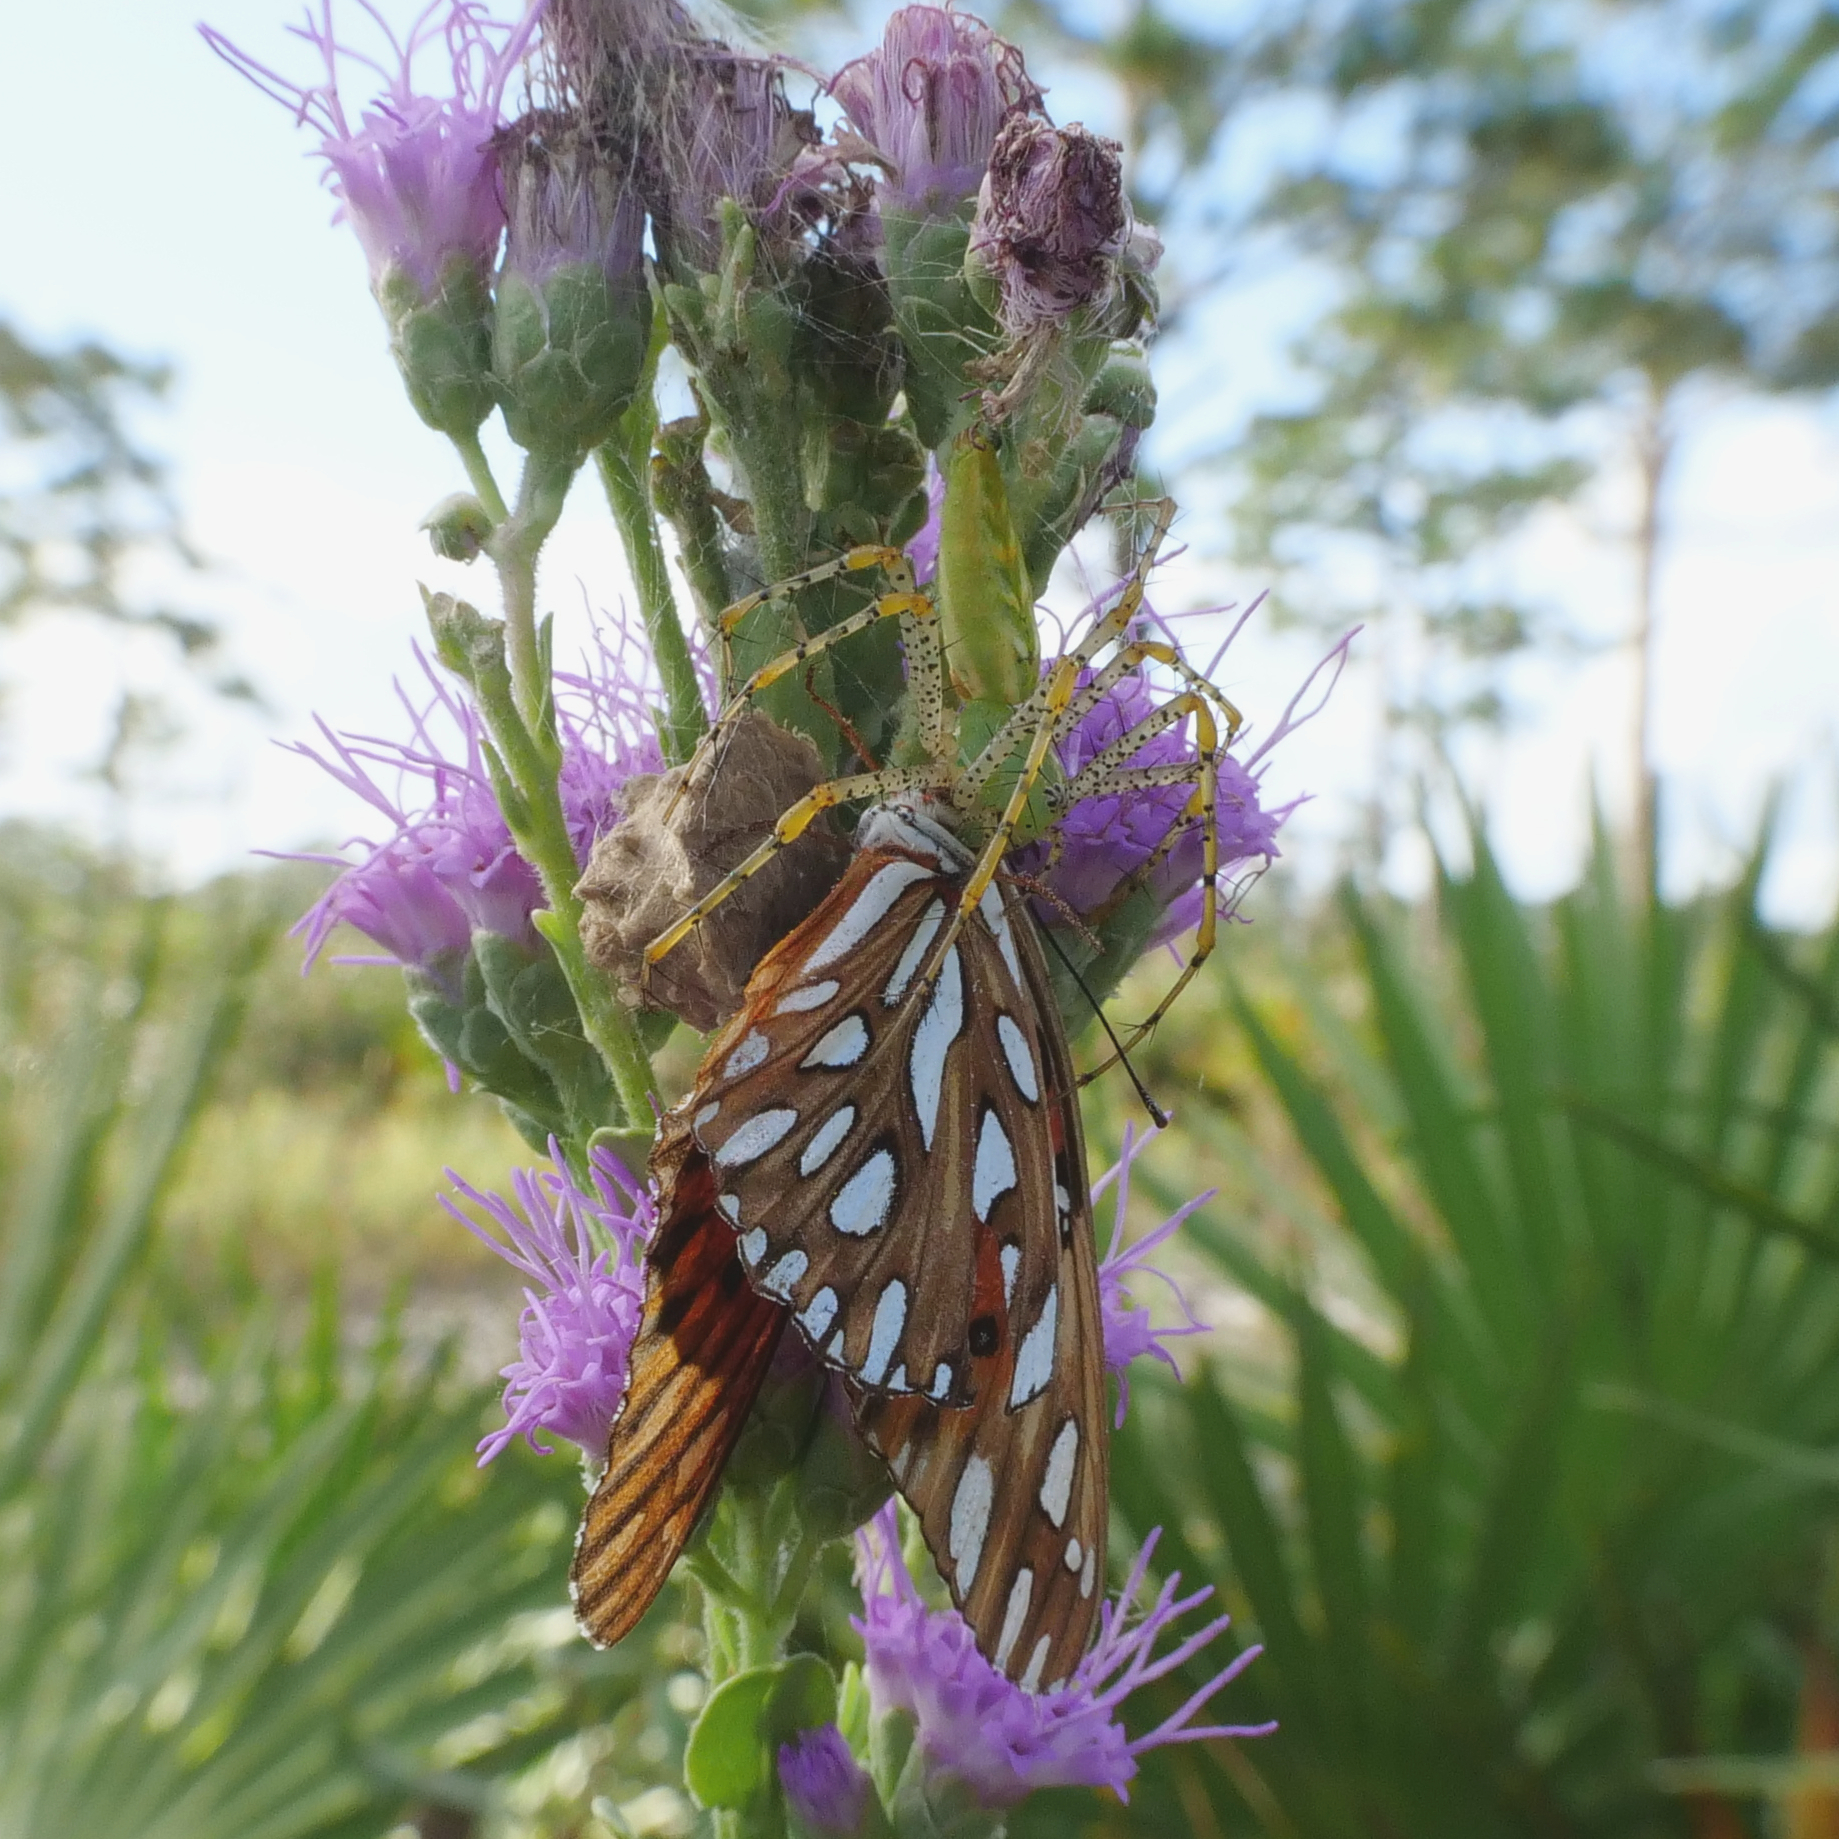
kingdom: Animalia
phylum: Arthropoda
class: Arachnida
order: Araneae
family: Oxyopidae
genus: Peucetia
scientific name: Peucetia viridans
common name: Lynx spiders
